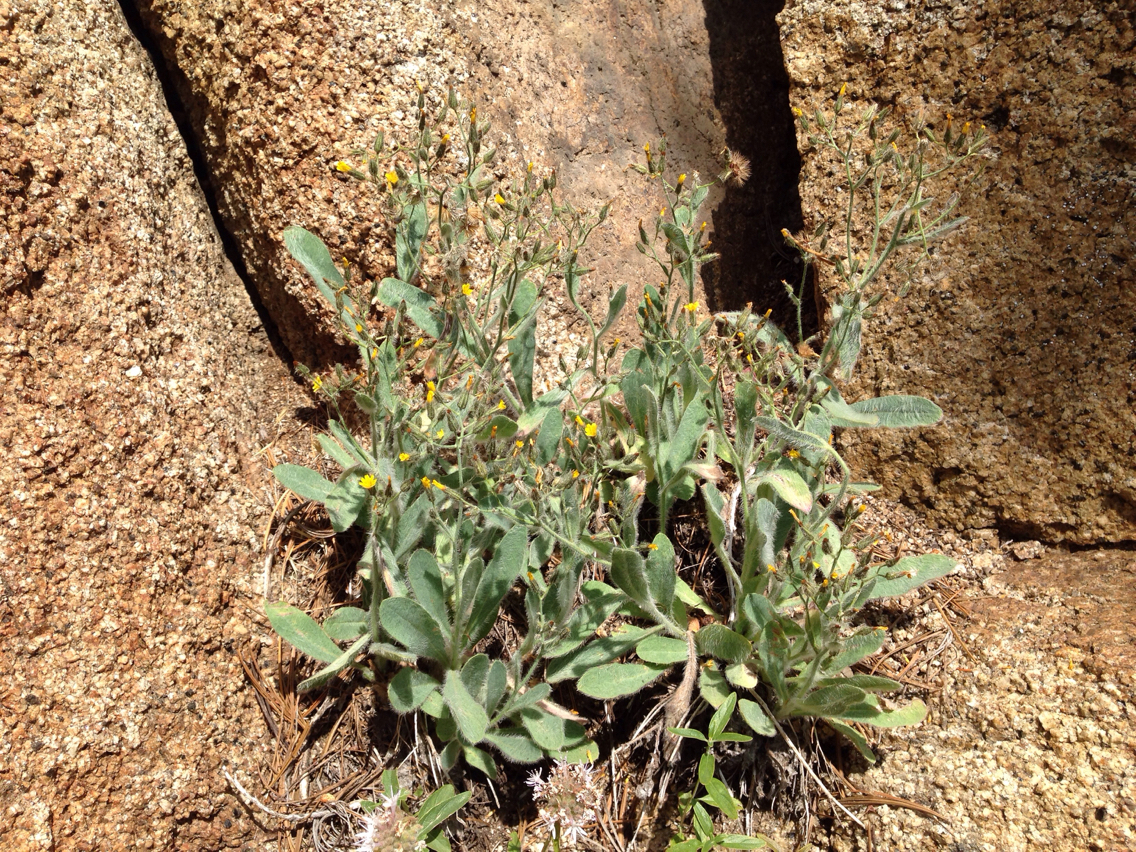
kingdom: Plantae
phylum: Tracheophyta
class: Magnoliopsida
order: Asterales
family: Asteraceae
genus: Hieracium
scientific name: Hieracium horridum
